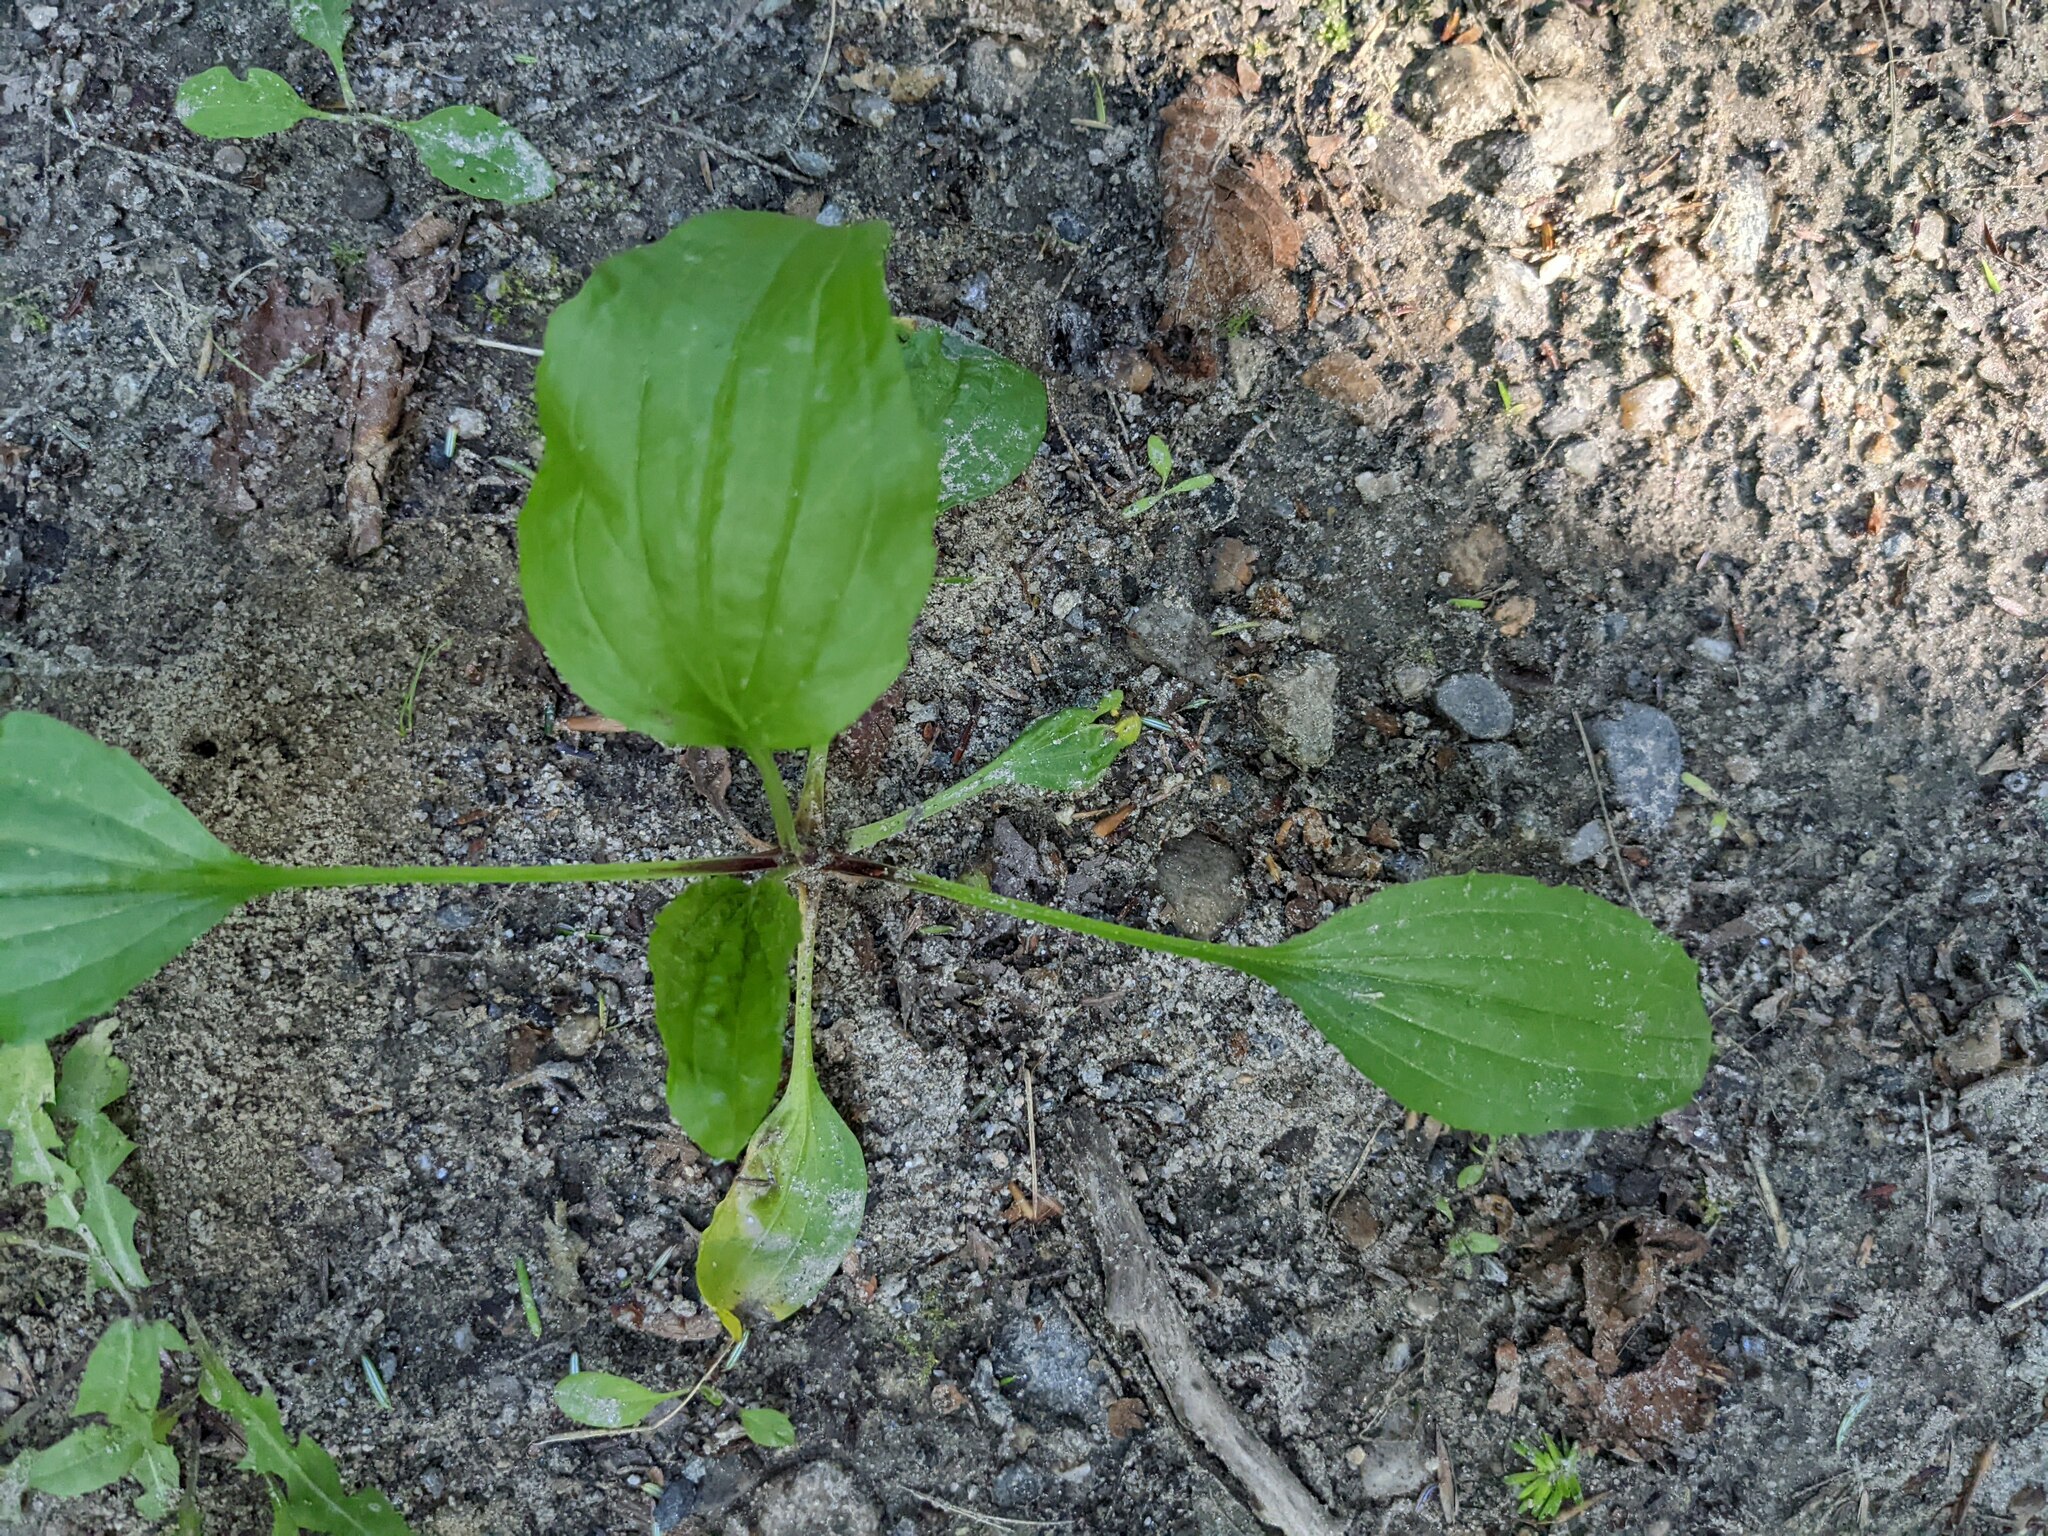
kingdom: Plantae
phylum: Tracheophyta
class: Magnoliopsida
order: Lamiales
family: Plantaginaceae
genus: Plantago
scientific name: Plantago rugelii
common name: American plantain
